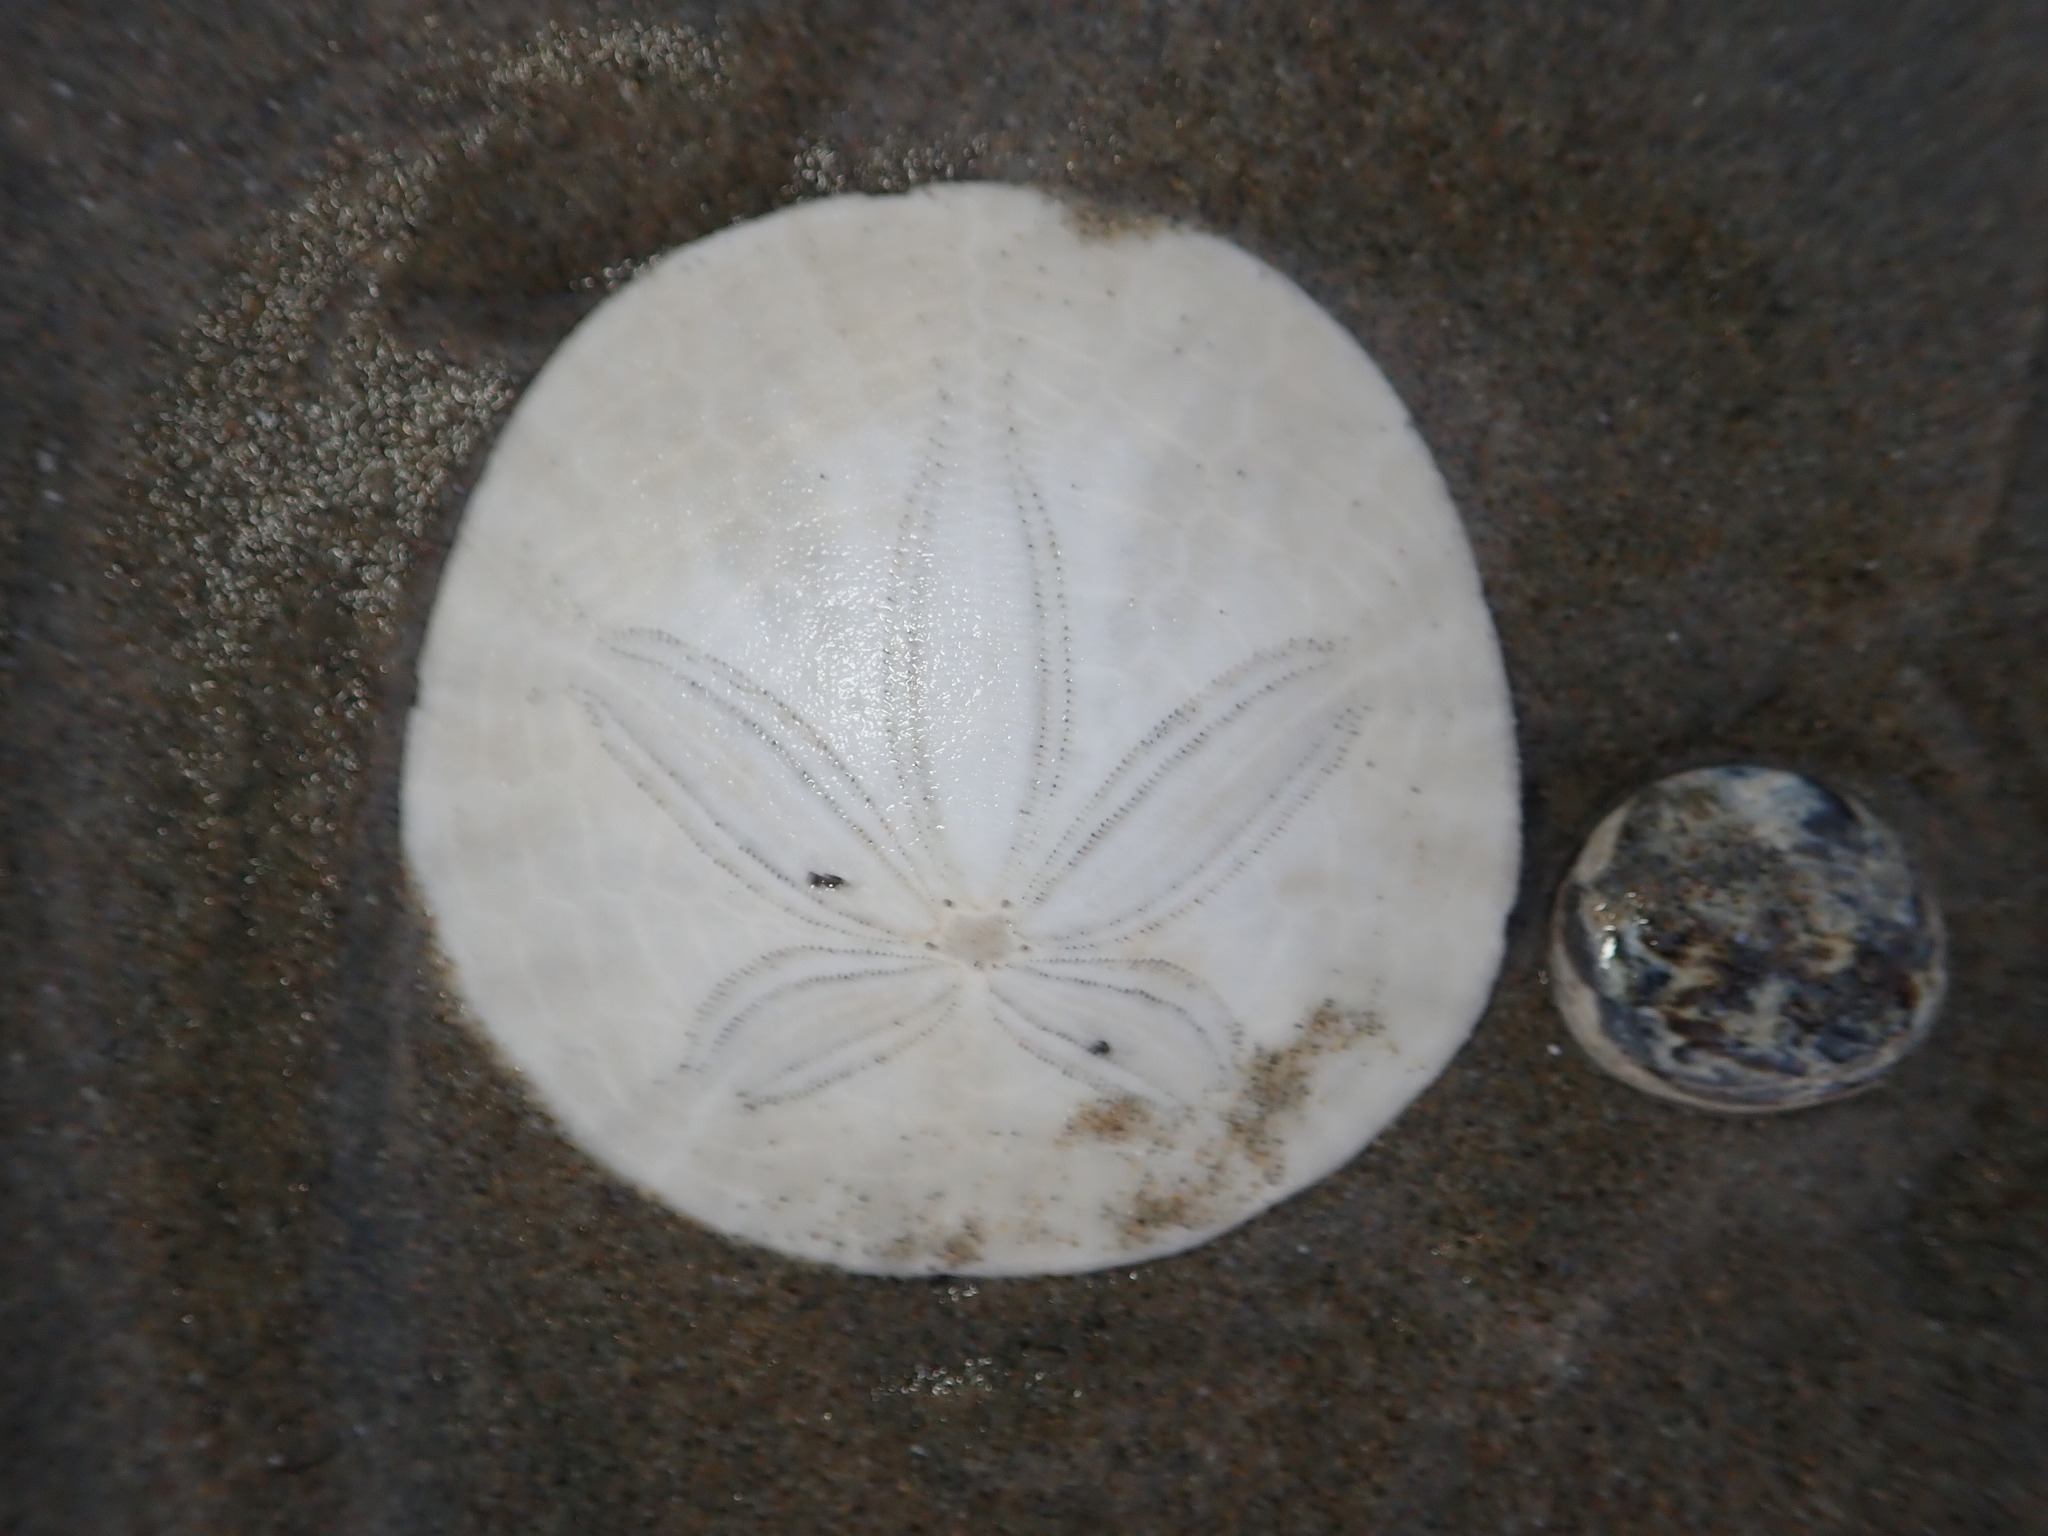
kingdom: Animalia
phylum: Echinodermata
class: Echinoidea
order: Echinolampadacea
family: Dendrasteridae
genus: Dendraster
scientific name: Dendraster excentricus
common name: Eccentric sand dollar sea urchin
